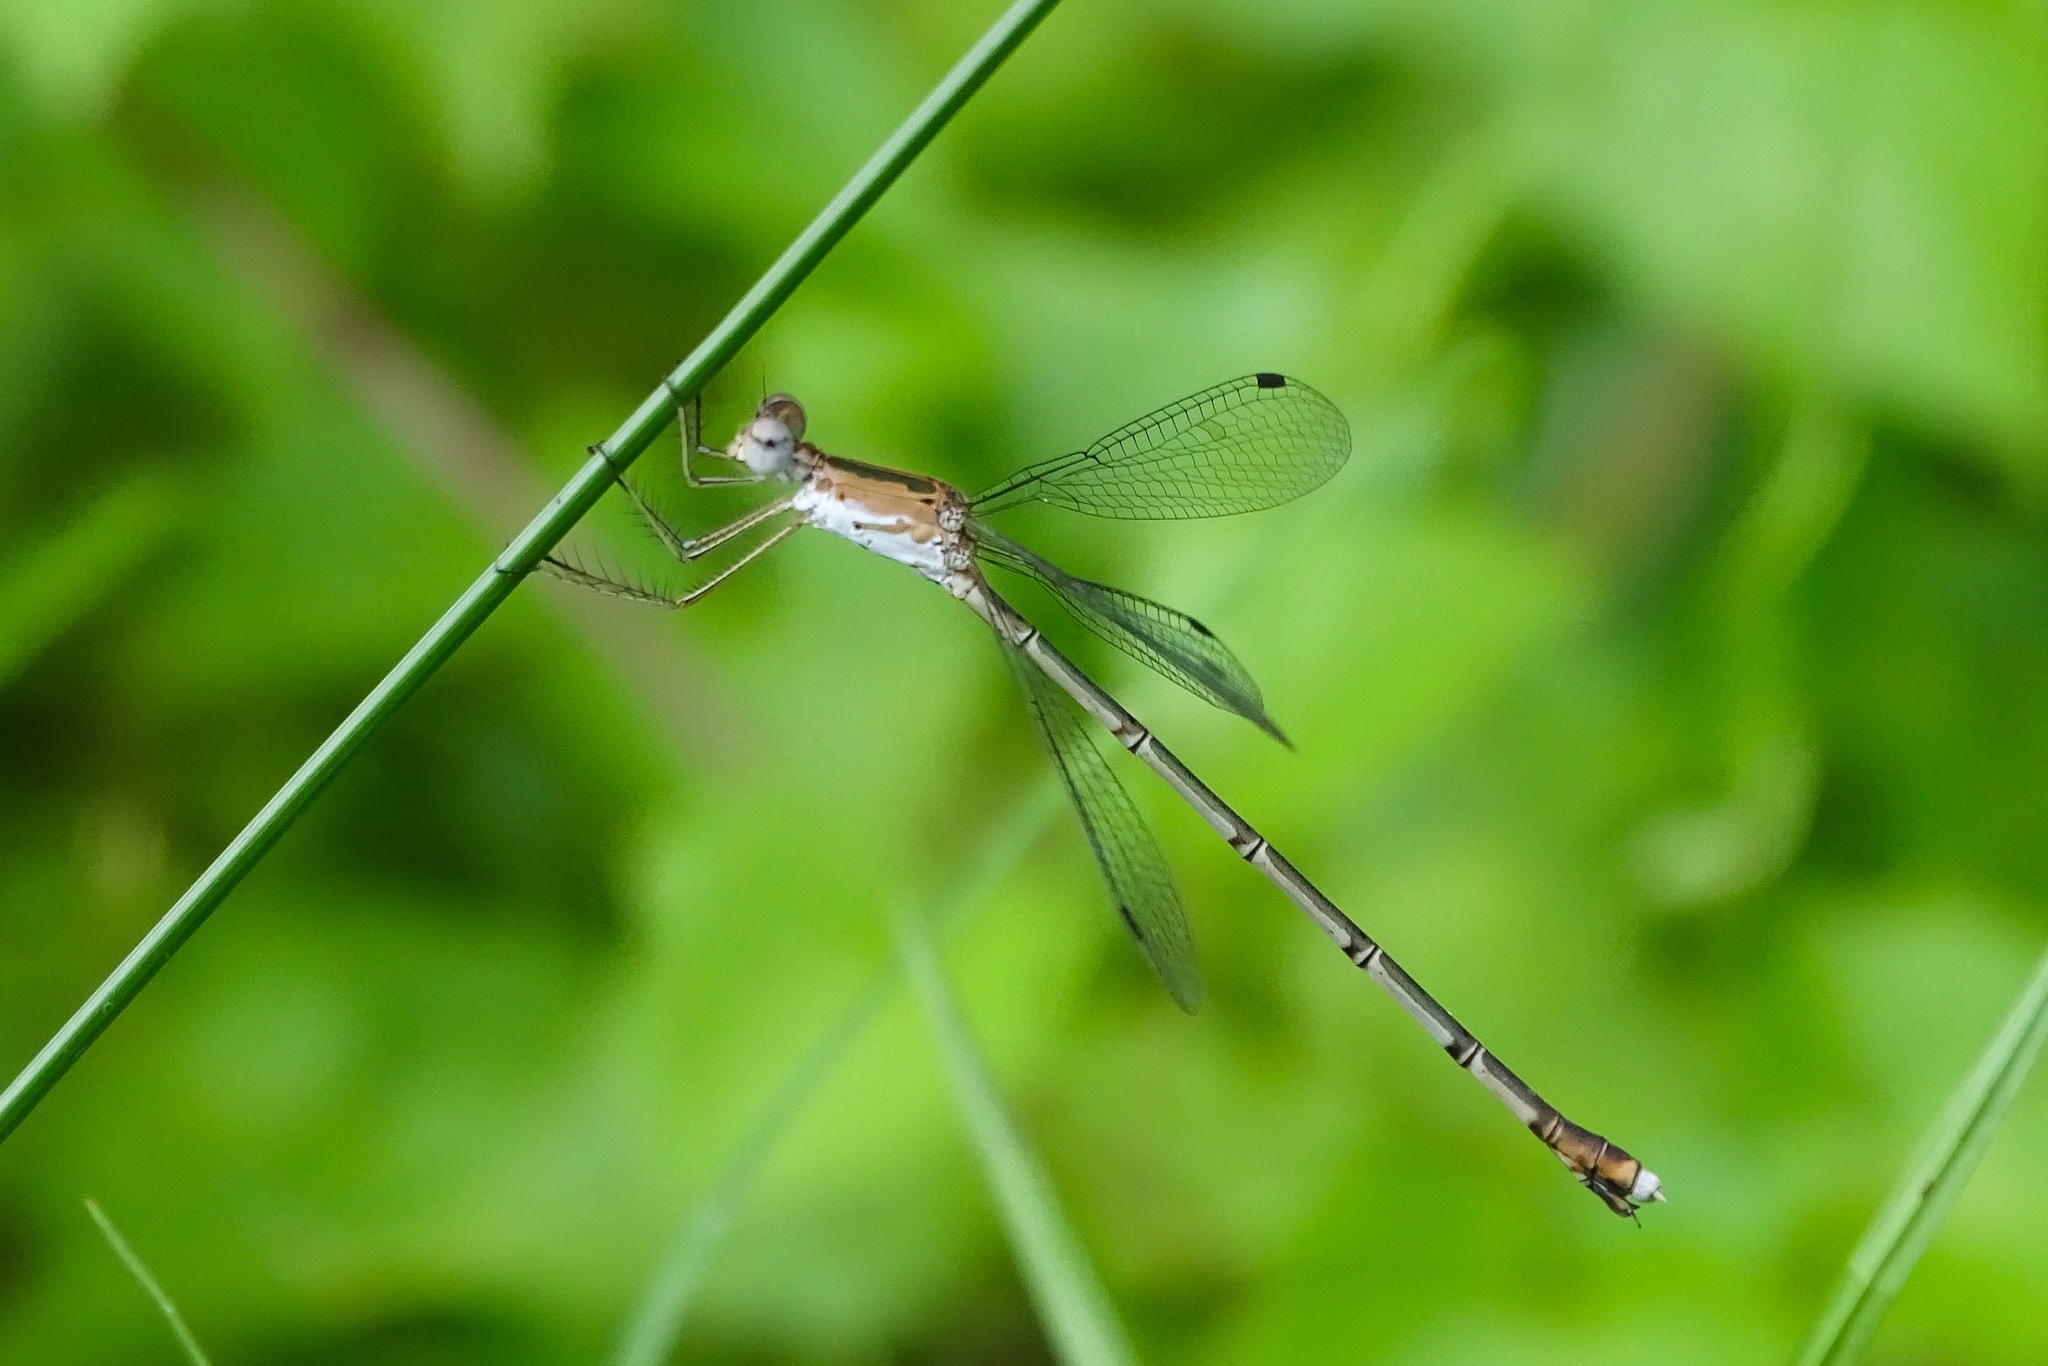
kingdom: Animalia
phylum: Arthropoda
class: Insecta
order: Odonata
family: Lestidae
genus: Lestes
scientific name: Lestes elatus
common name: Emerald spreadwing
